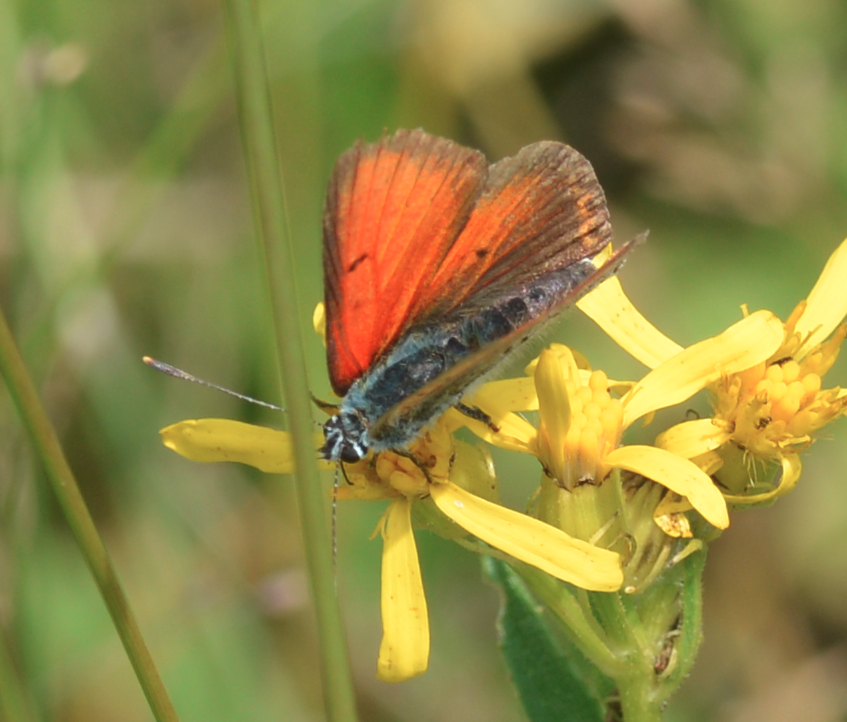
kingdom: Animalia
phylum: Arthropoda
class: Insecta
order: Lepidoptera
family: Lycaenidae
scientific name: Lycaenidae
